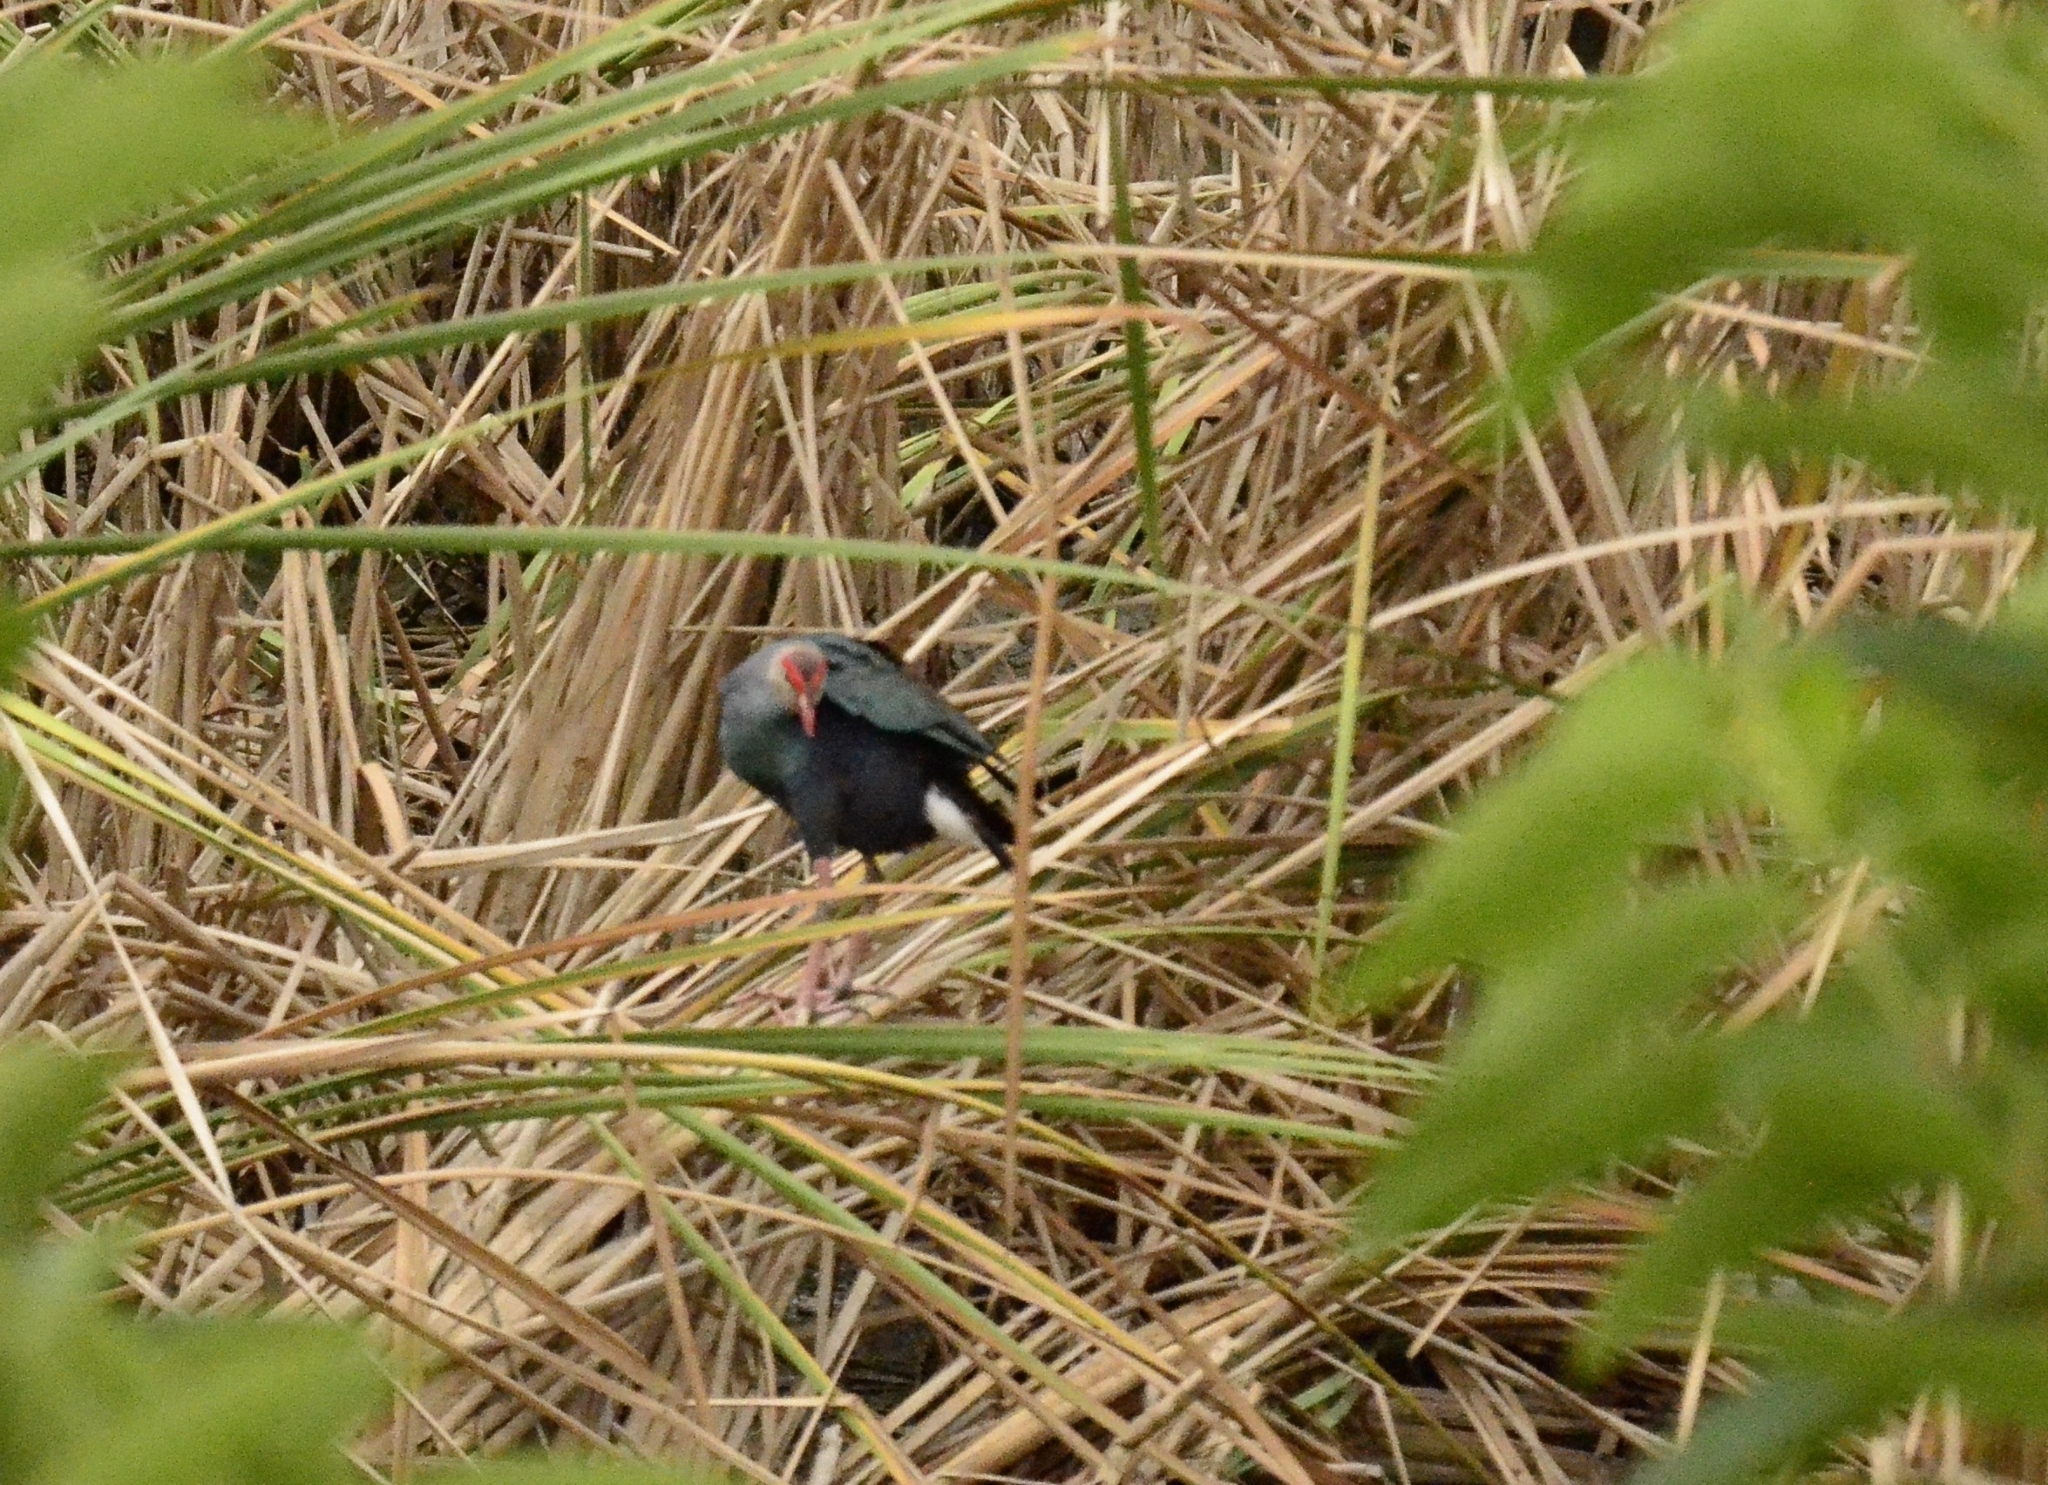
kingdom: Animalia
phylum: Chordata
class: Aves
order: Gruiformes
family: Rallidae
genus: Porphyrio
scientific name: Porphyrio porphyrio
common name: Purple swamphen
